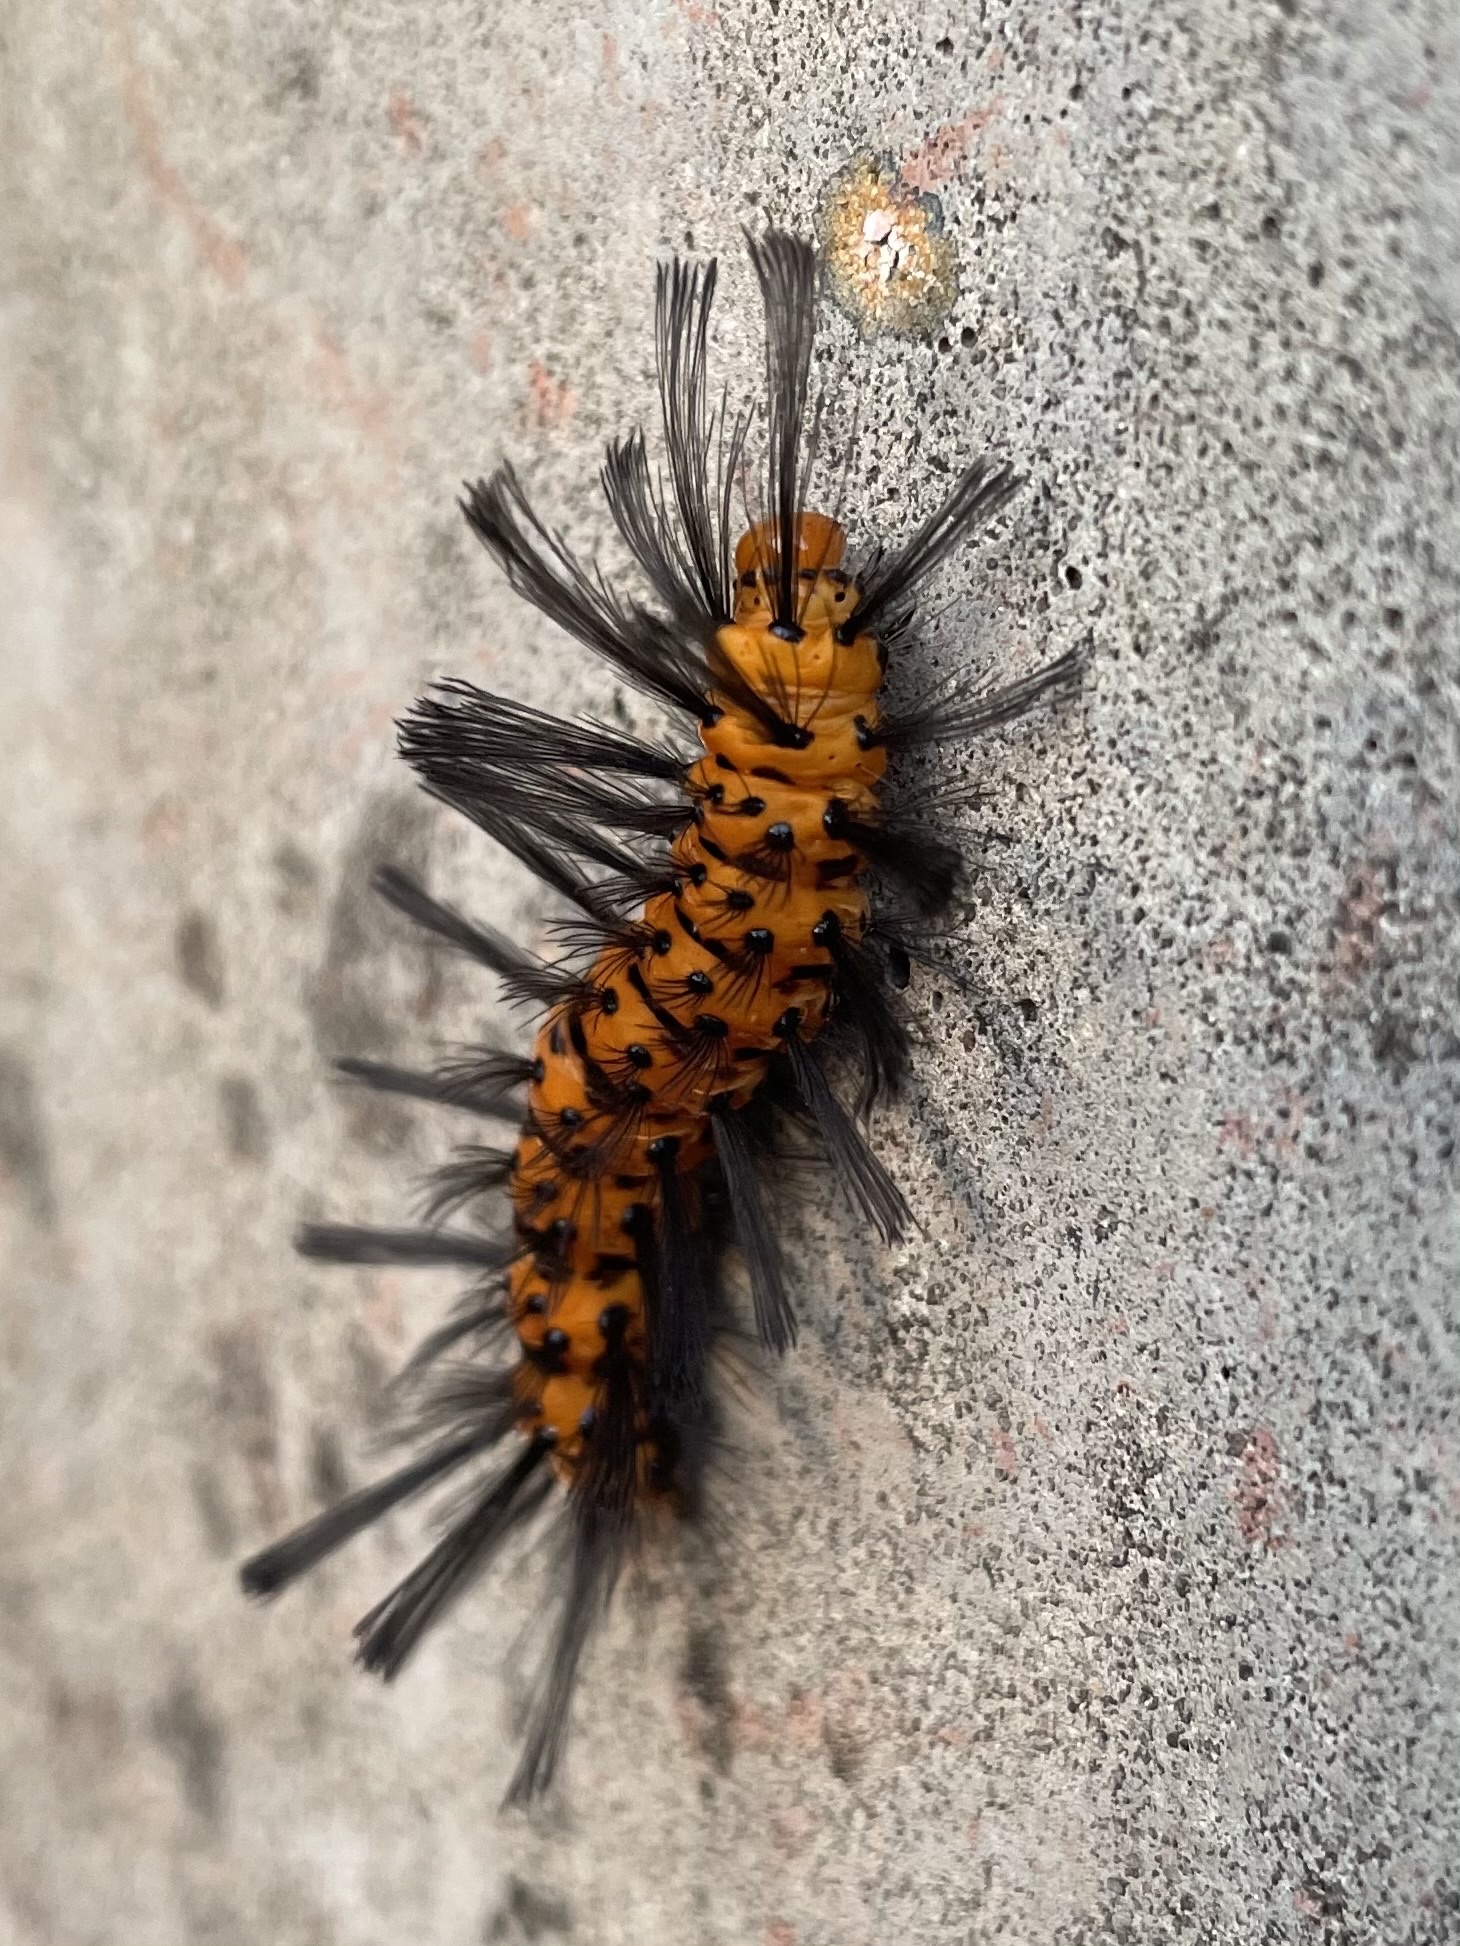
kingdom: Animalia
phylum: Arthropoda
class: Insecta
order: Lepidoptera
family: Erebidae
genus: Syntomeida
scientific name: Syntomeida epilais
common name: Polka-dot wasp moth
